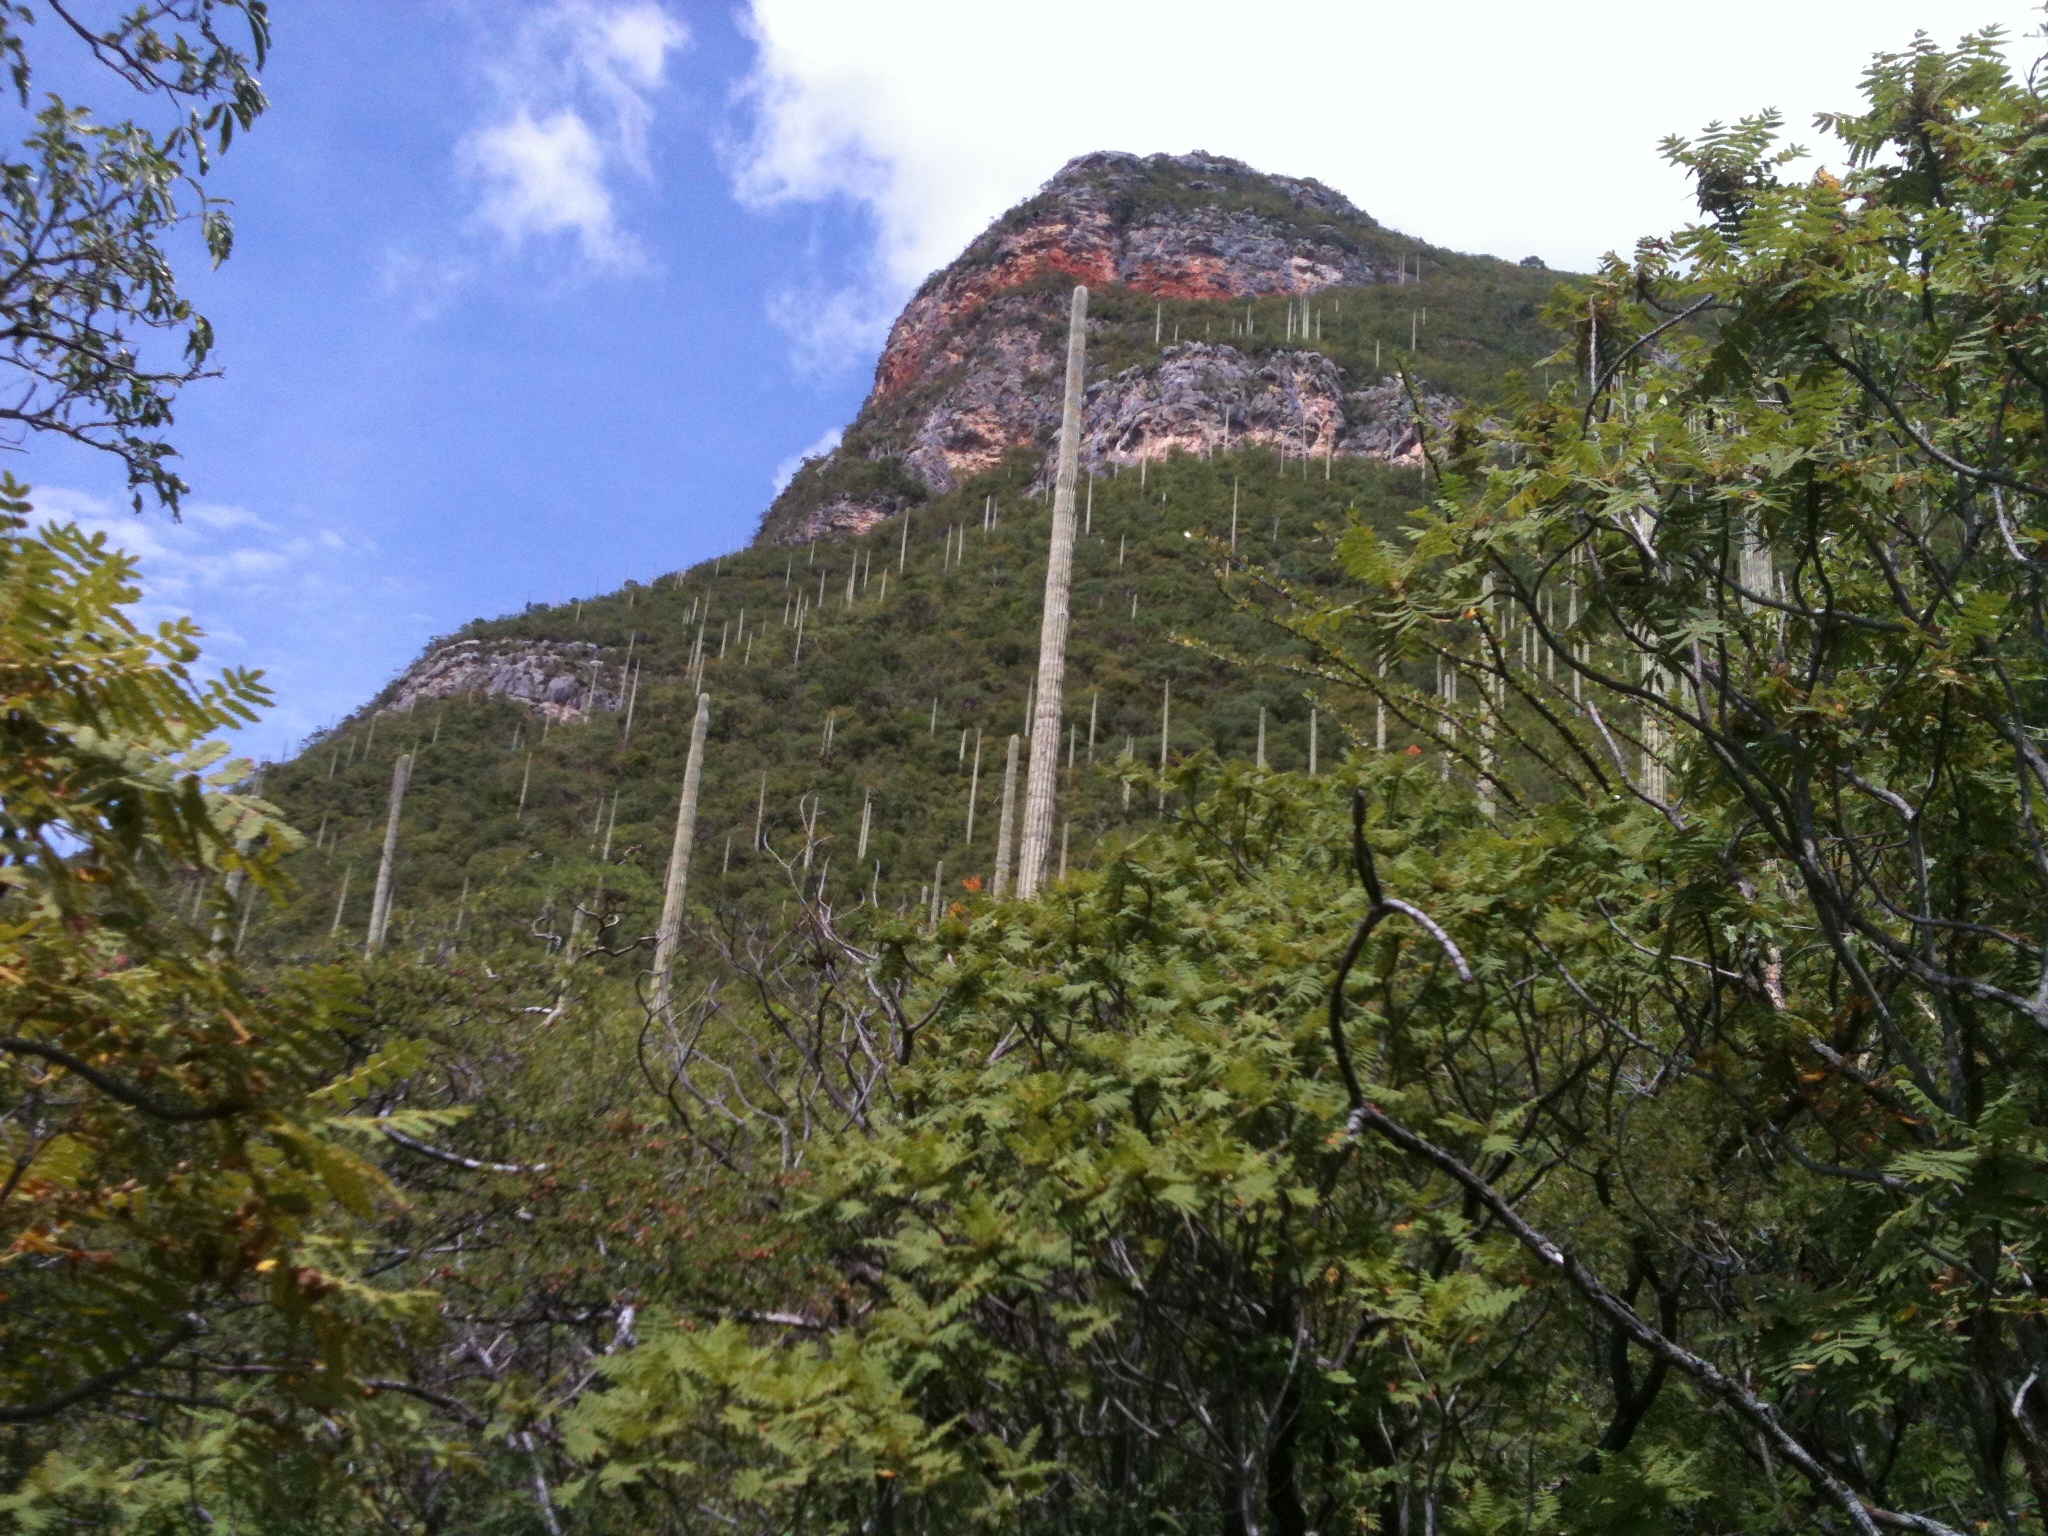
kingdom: Plantae
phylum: Tracheophyta
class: Magnoliopsida
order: Caryophyllales
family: Cactaceae
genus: Cephalocereus
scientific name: Cephalocereus mezcalaensis
